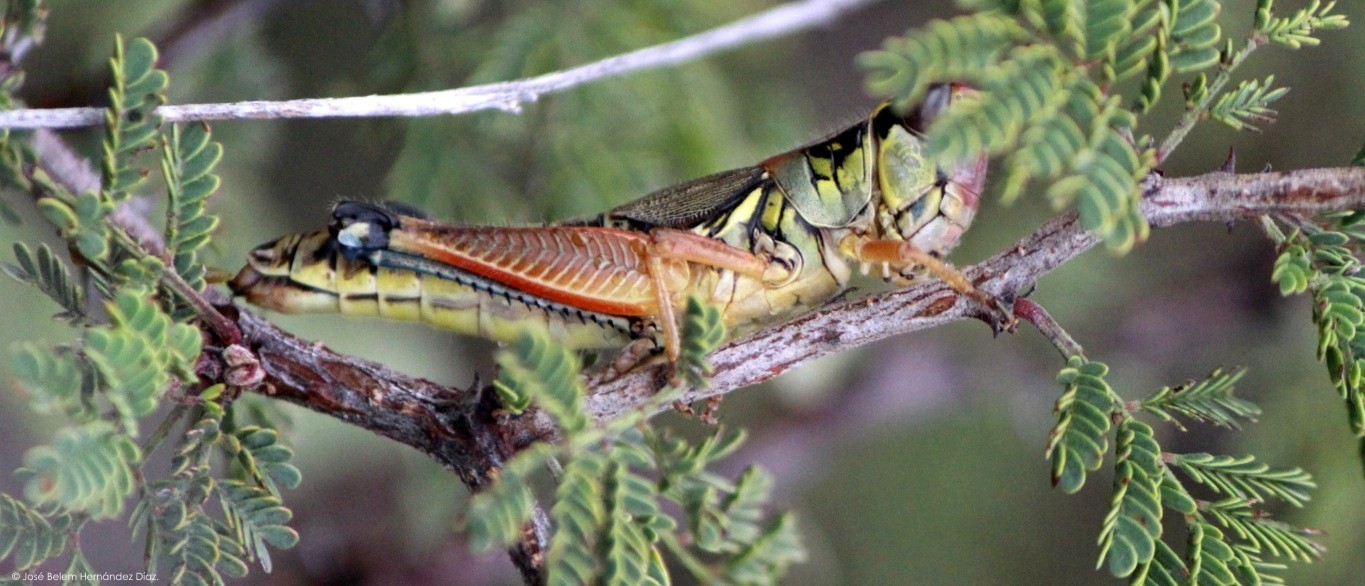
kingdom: Animalia
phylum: Arthropoda
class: Insecta
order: Orthoptera
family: Acrididae
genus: Phoetaliotes
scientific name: Phoetaliotes nebrascensis
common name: Large-headed grasshopper
